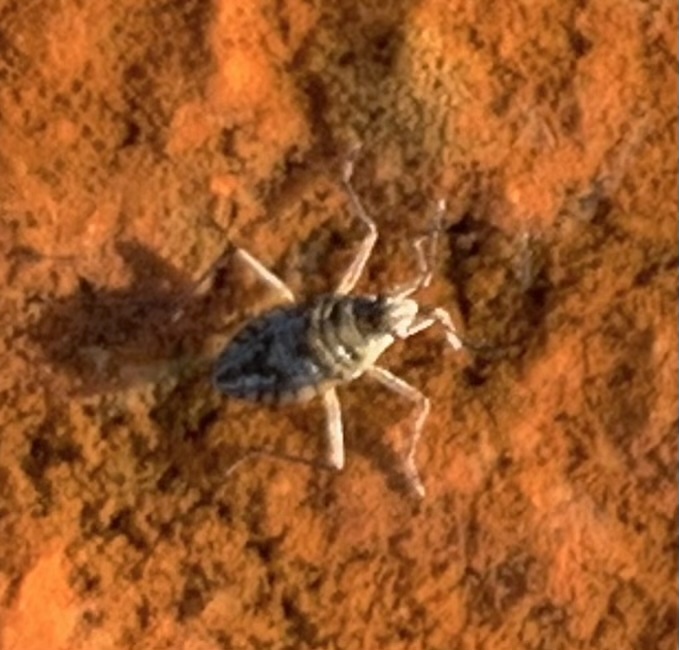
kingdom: Animalia
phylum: Arthropoda
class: Insecta
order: Hemiptera
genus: Kirkaldya
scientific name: Kirkaldya
